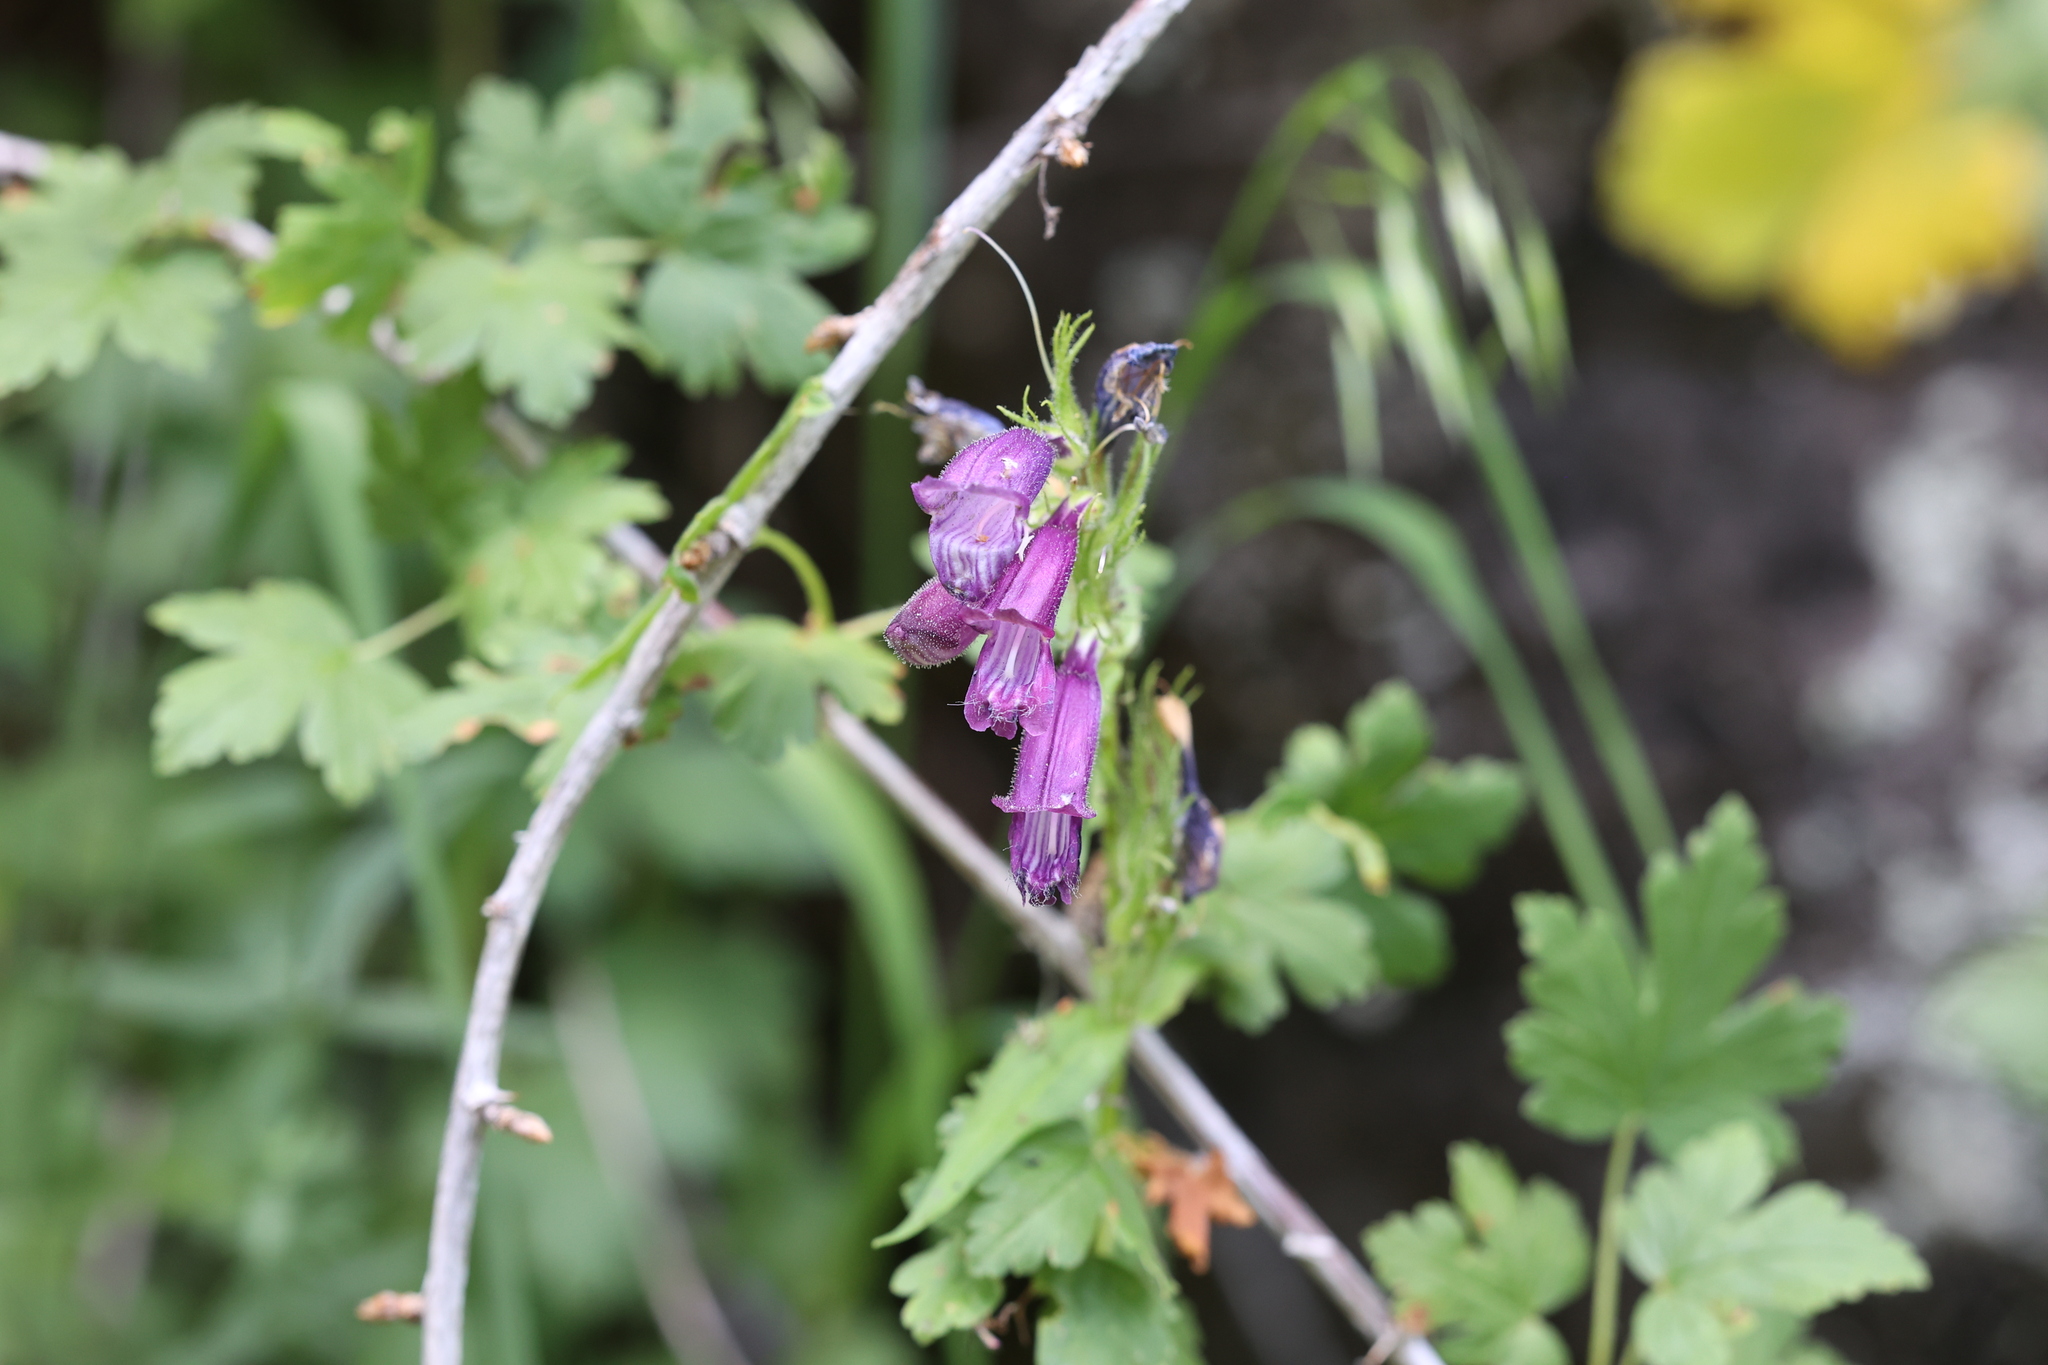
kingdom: Plantae
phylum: Tracheophyta
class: Magnoliopsida
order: Lamiales
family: Plantaginaceae
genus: Penstemon
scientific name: Penstemon whippleanus
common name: Whipple's penstemon
